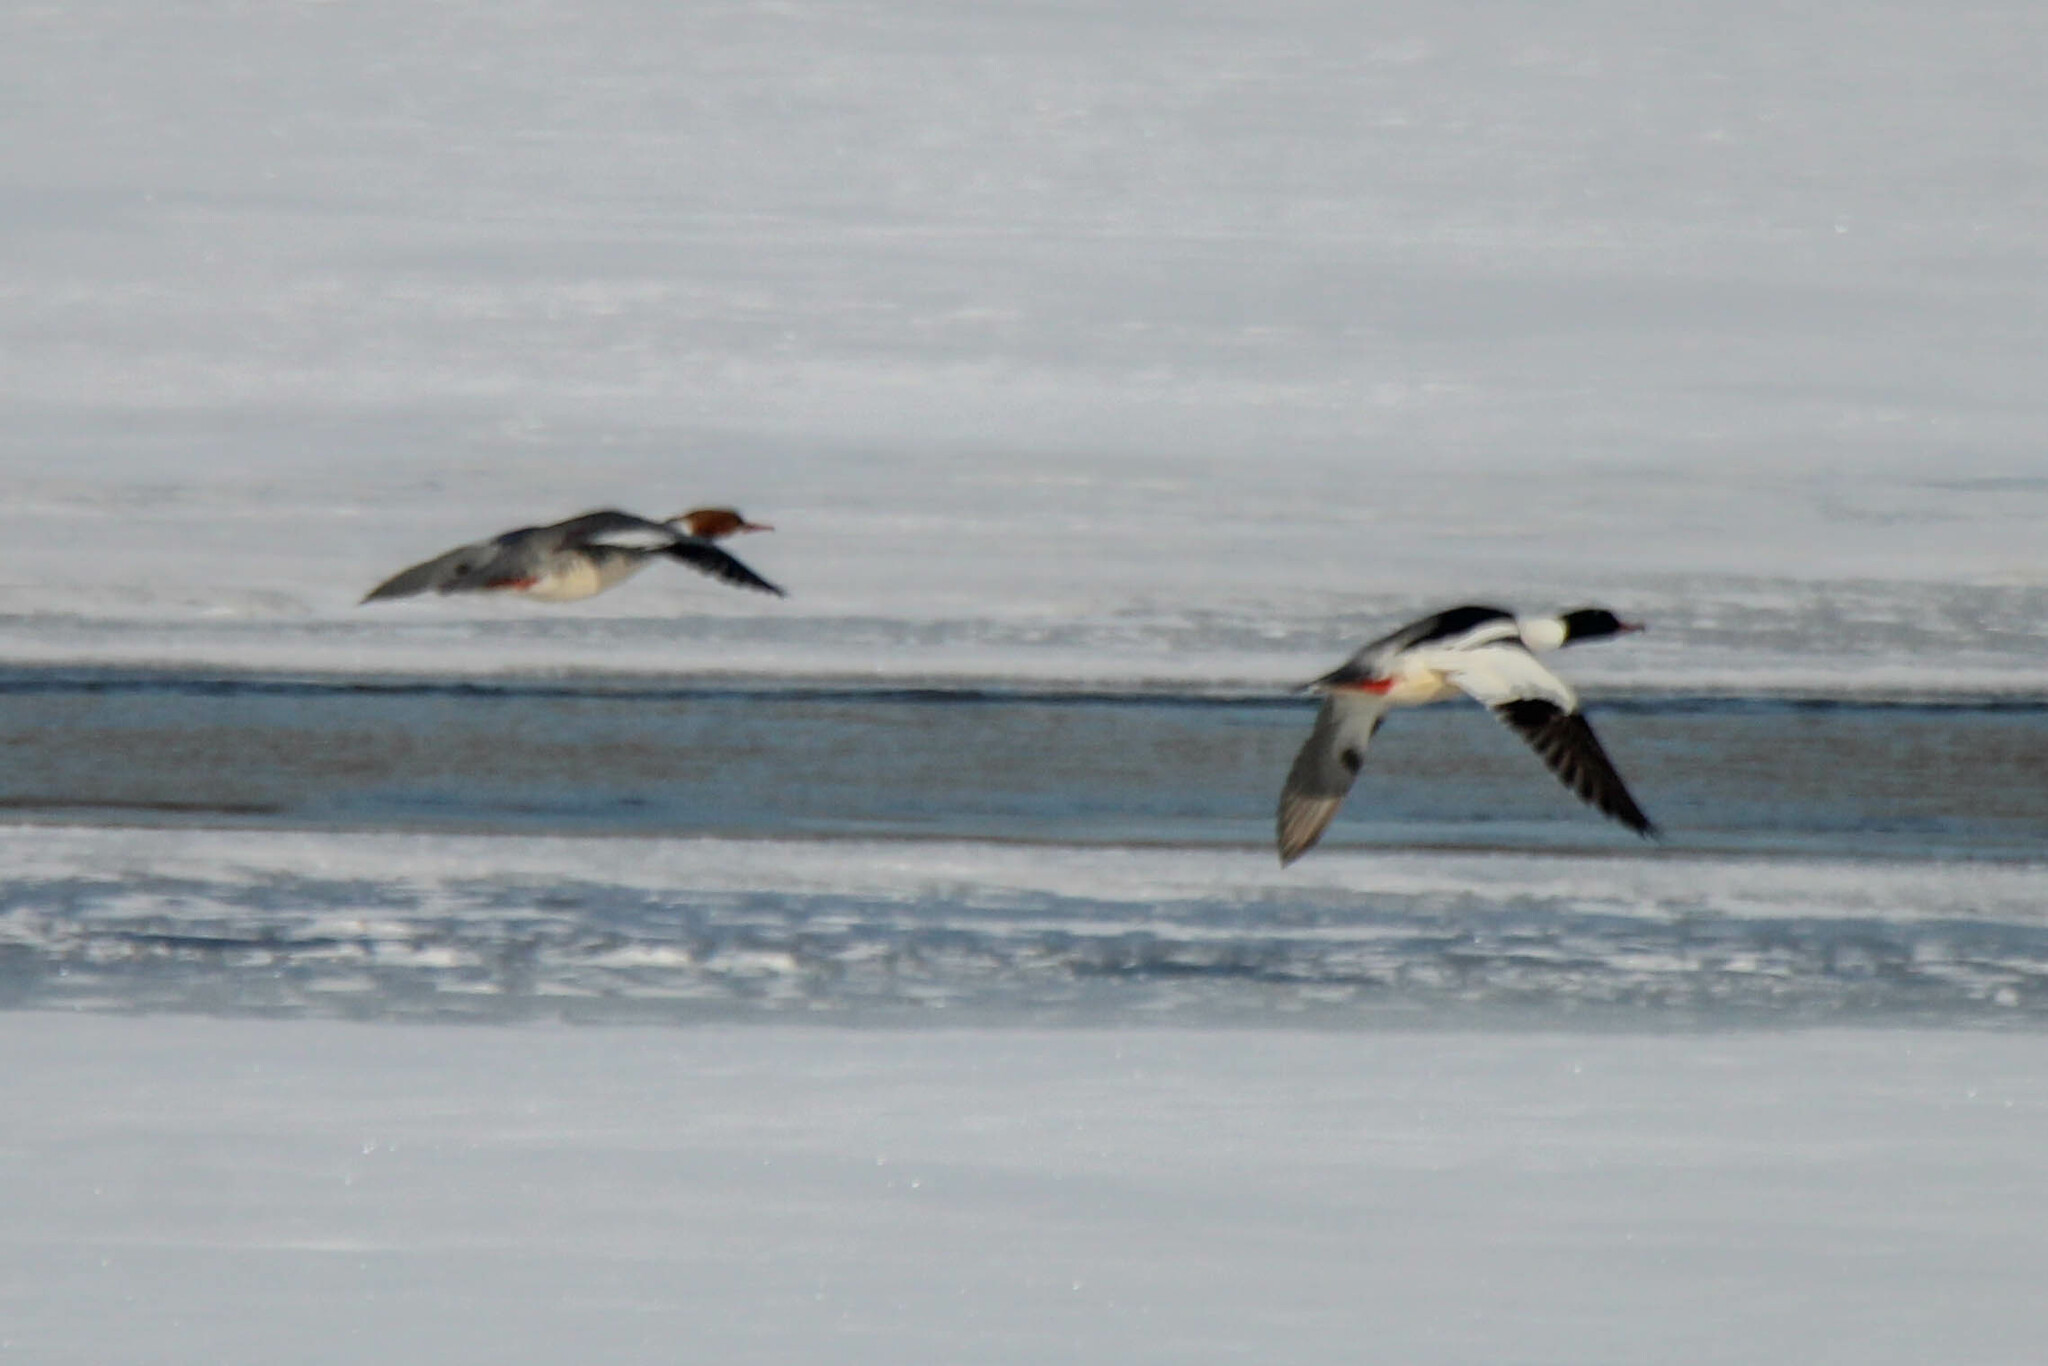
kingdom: Animalia
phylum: Chordata
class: Aves
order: Anseriformes
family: Anatidae
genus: Mergus
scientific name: Mergus merganser
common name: Common merganser
